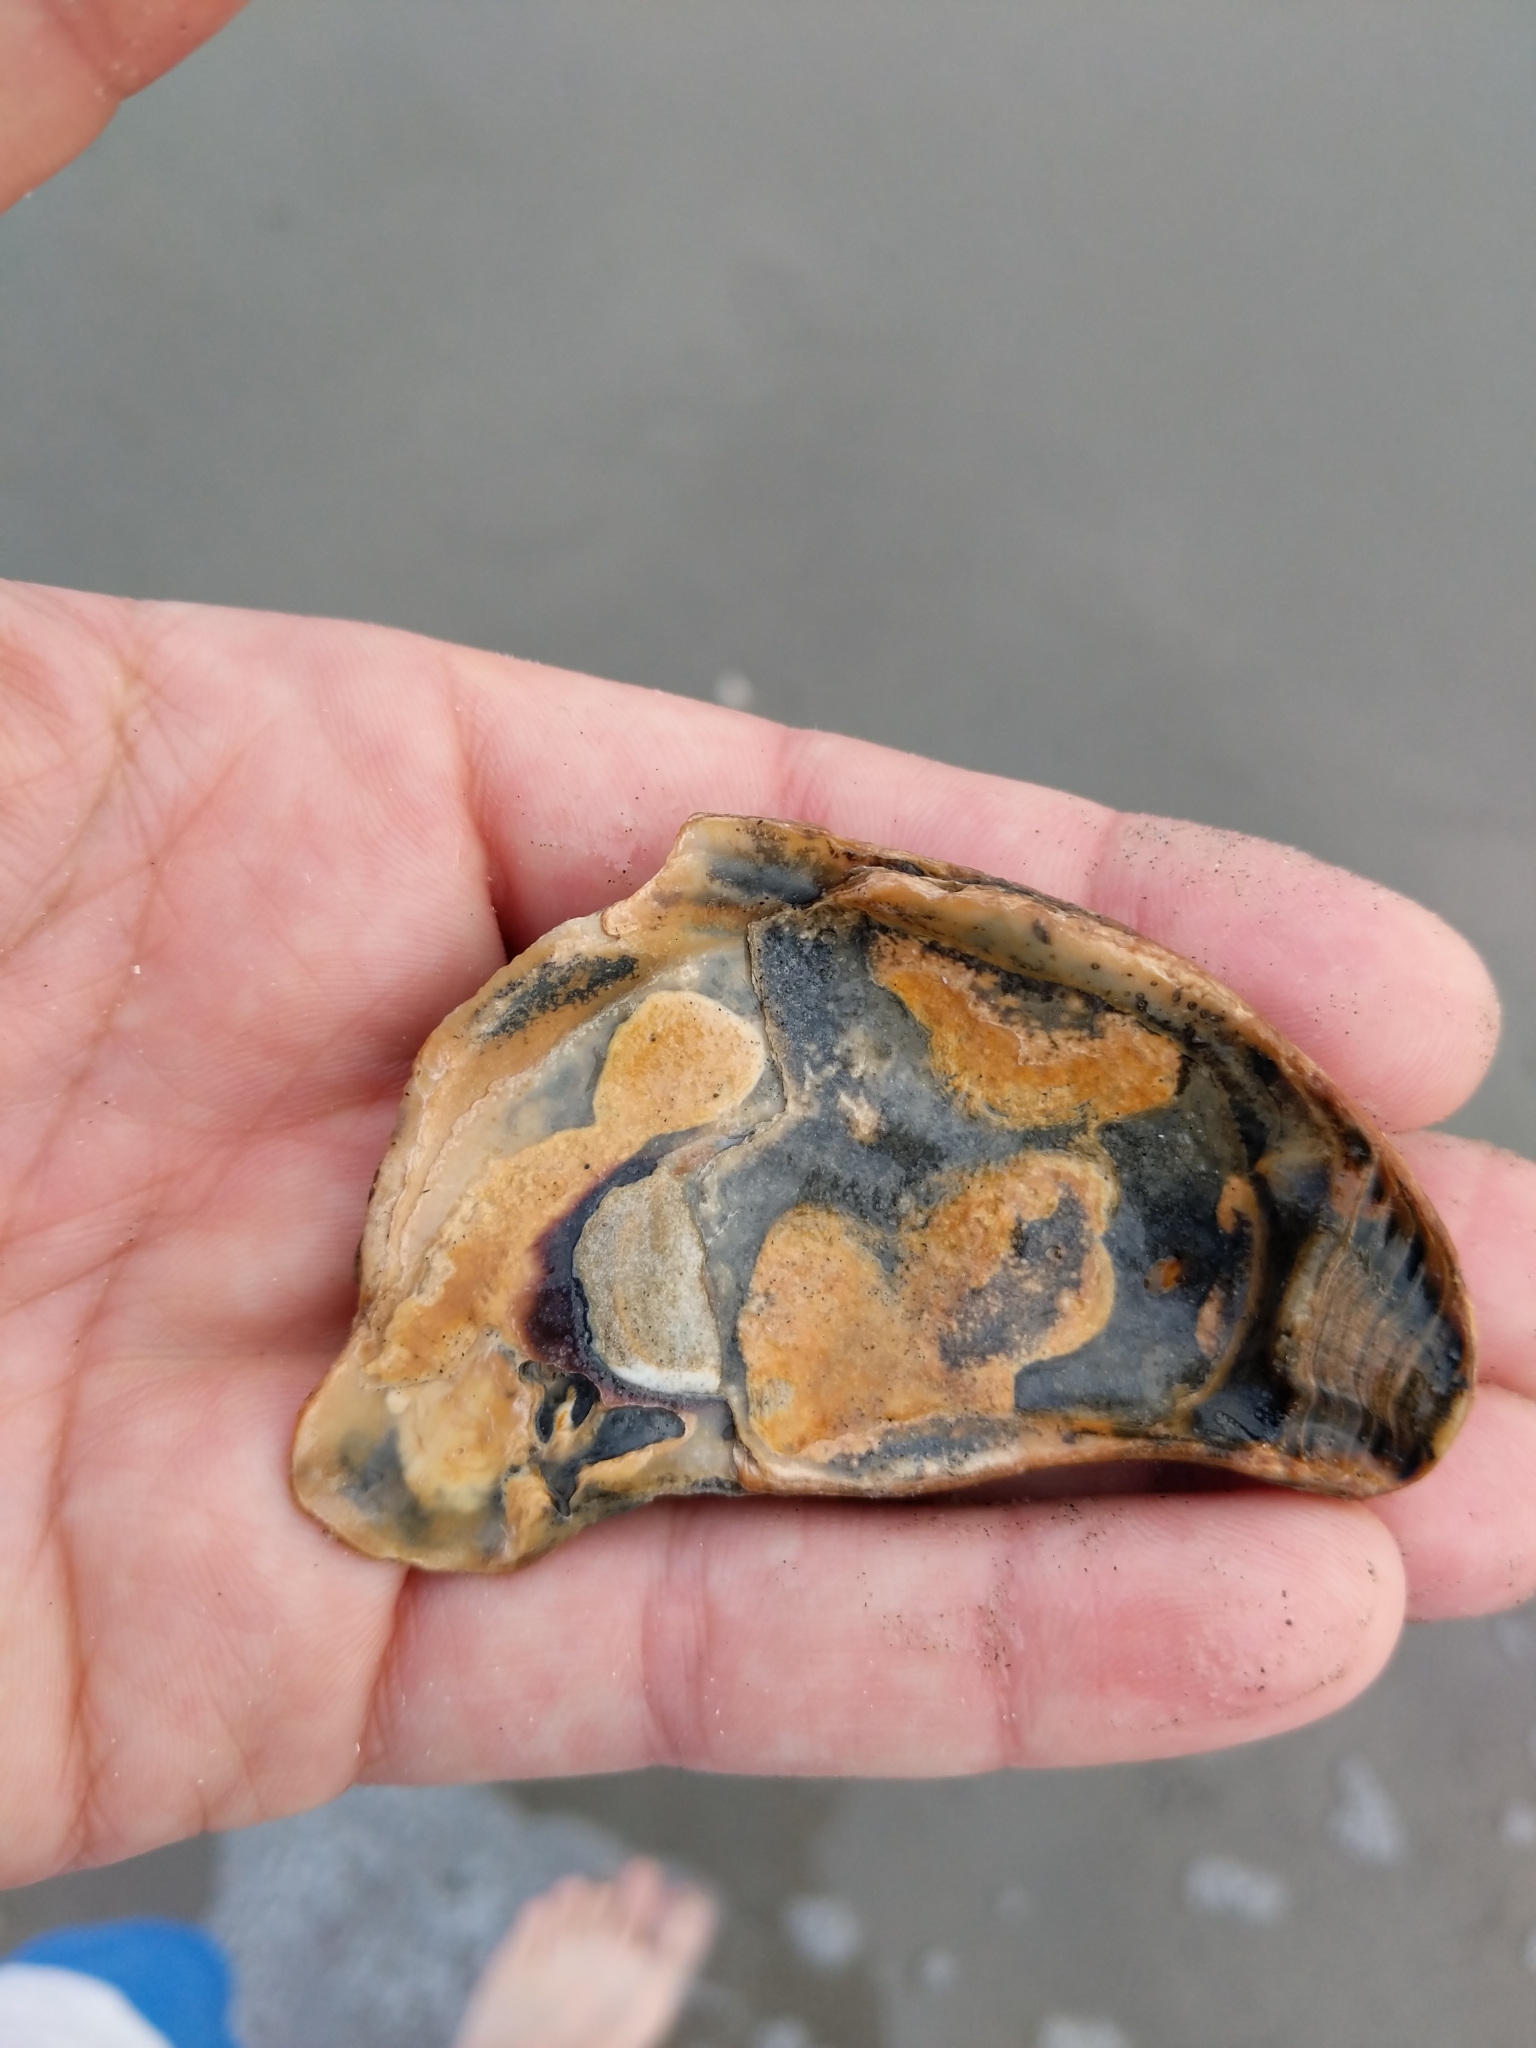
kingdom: Animalia
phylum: Mollusca
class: Bivalvia
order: Ostreida
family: Ostreidae
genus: Crassostrea
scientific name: Crassostrea virginica
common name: American oyster
